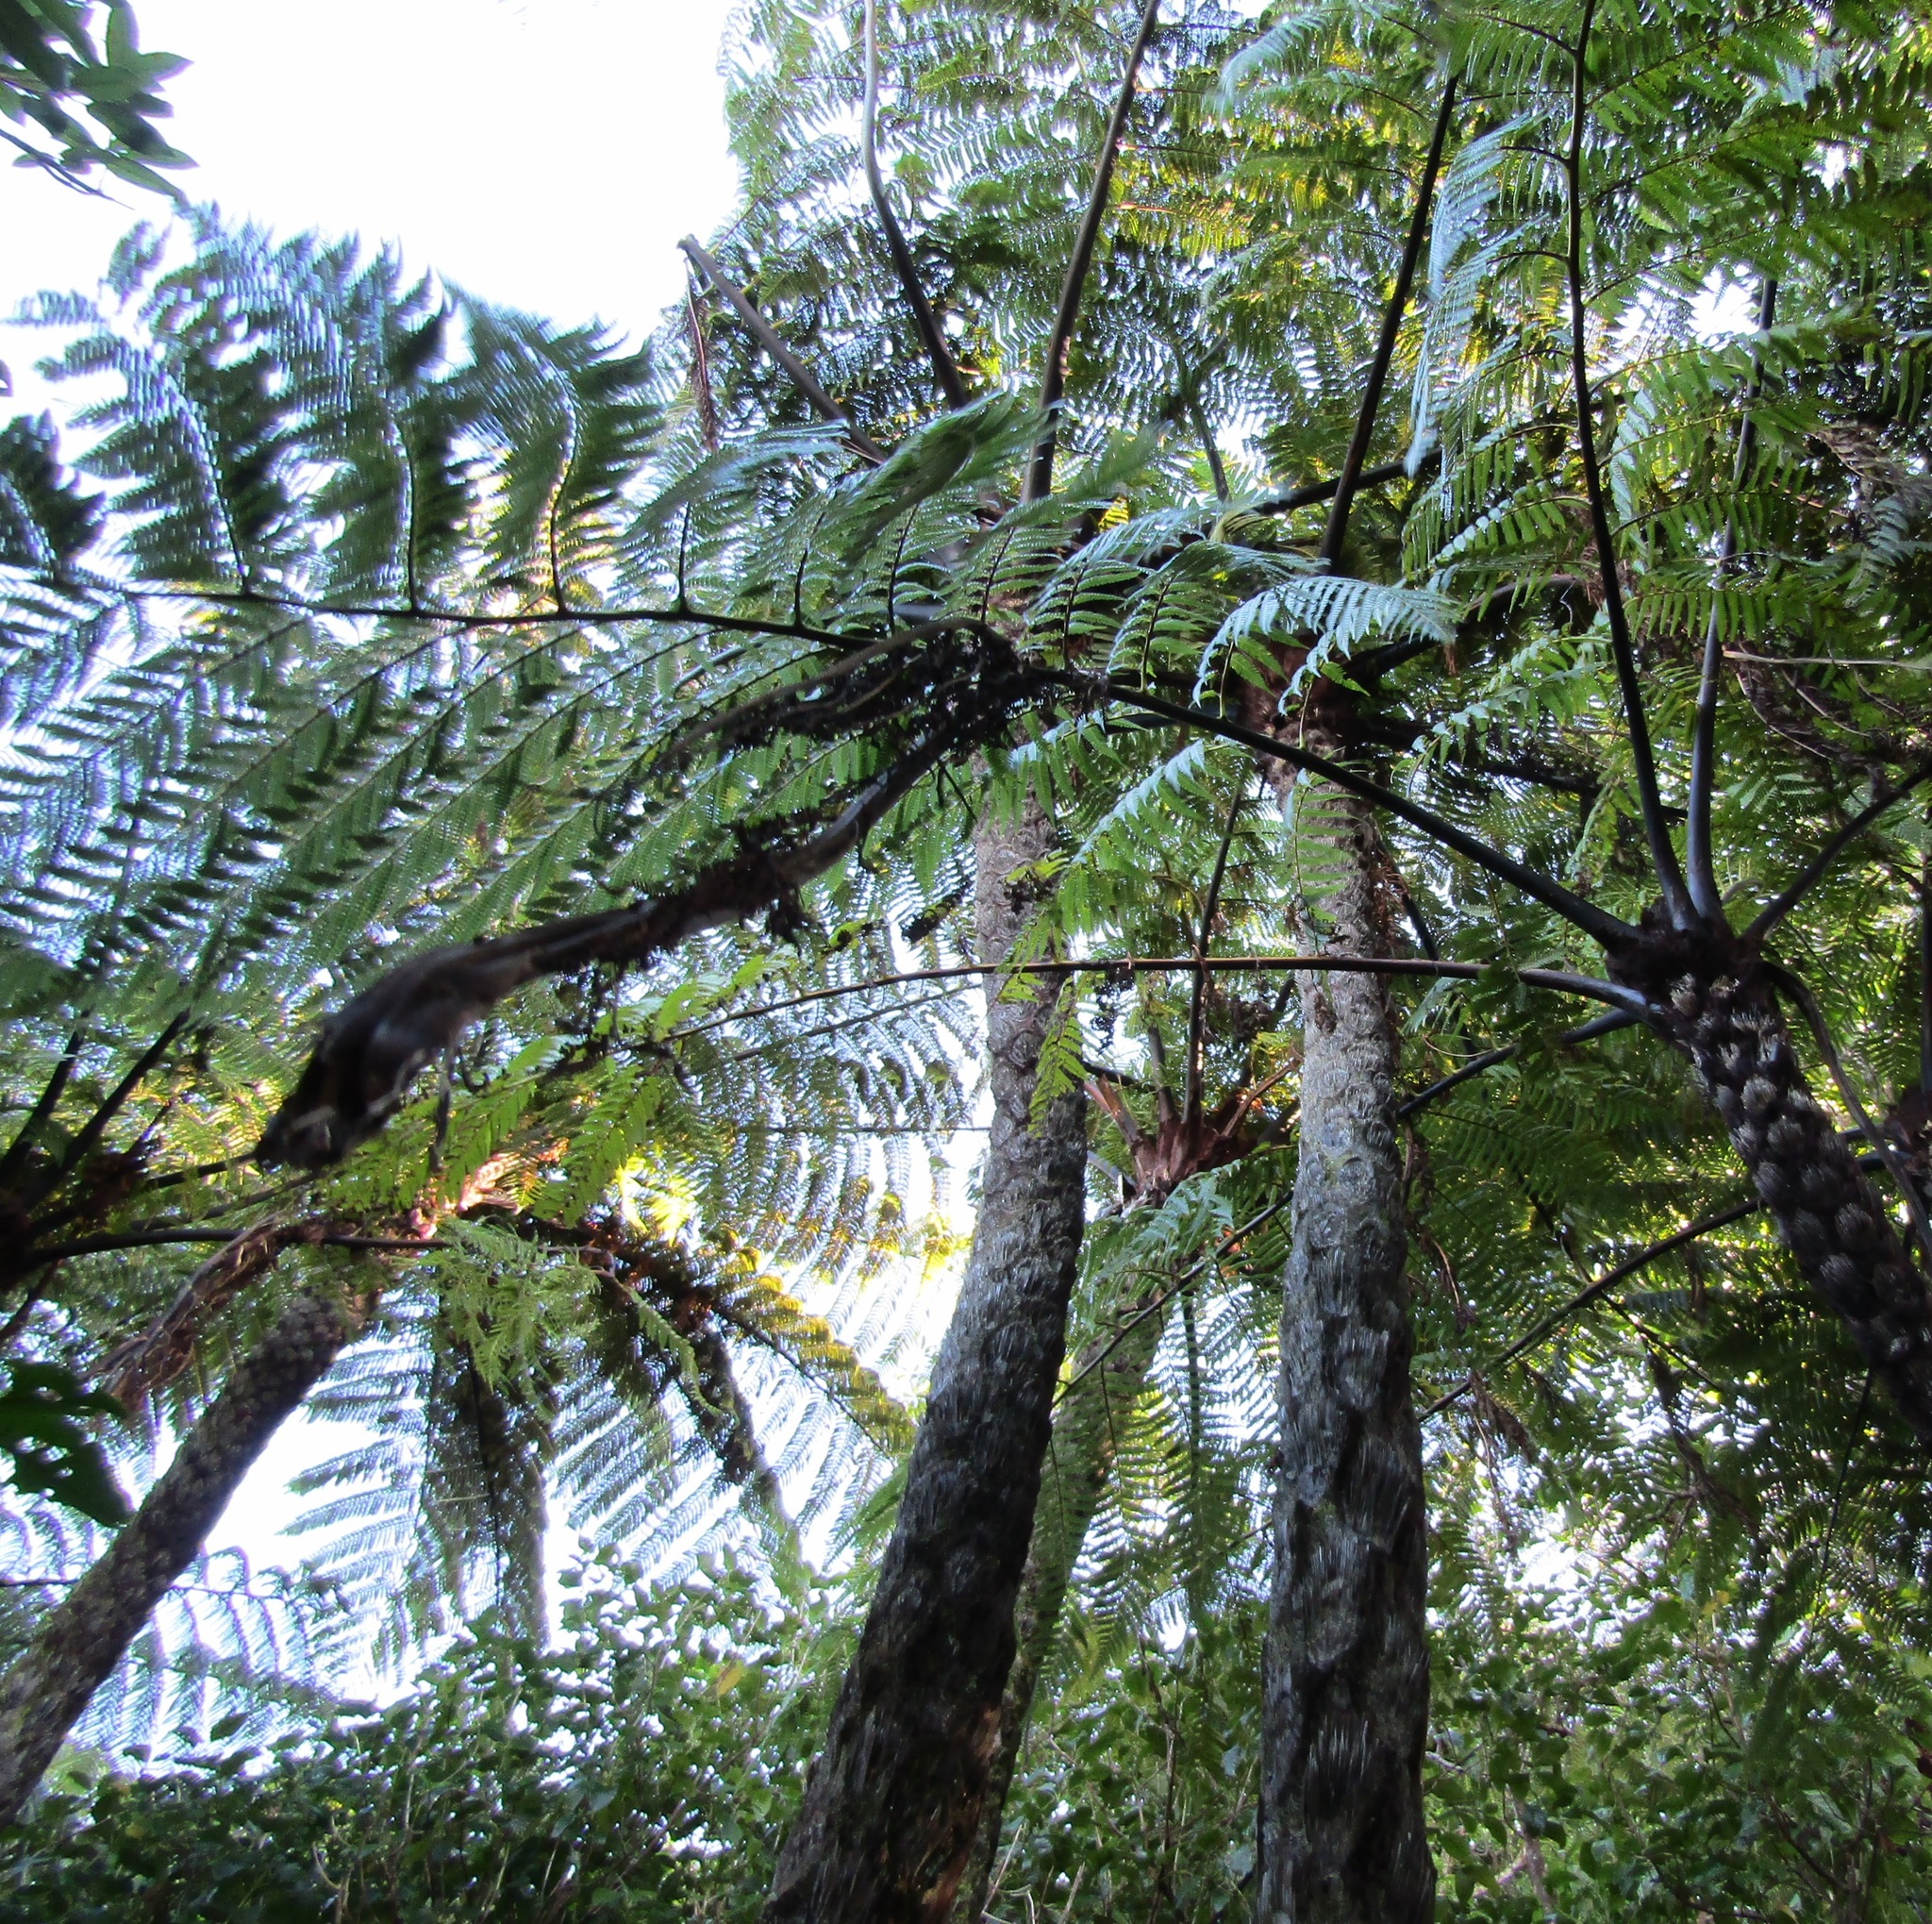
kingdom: Plantae
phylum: Tracheophyta
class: Polypodiopsida
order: Cyatheales
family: Cyatheaceae
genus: Sphaeropteris
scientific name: Sphaeropteris medullaris
